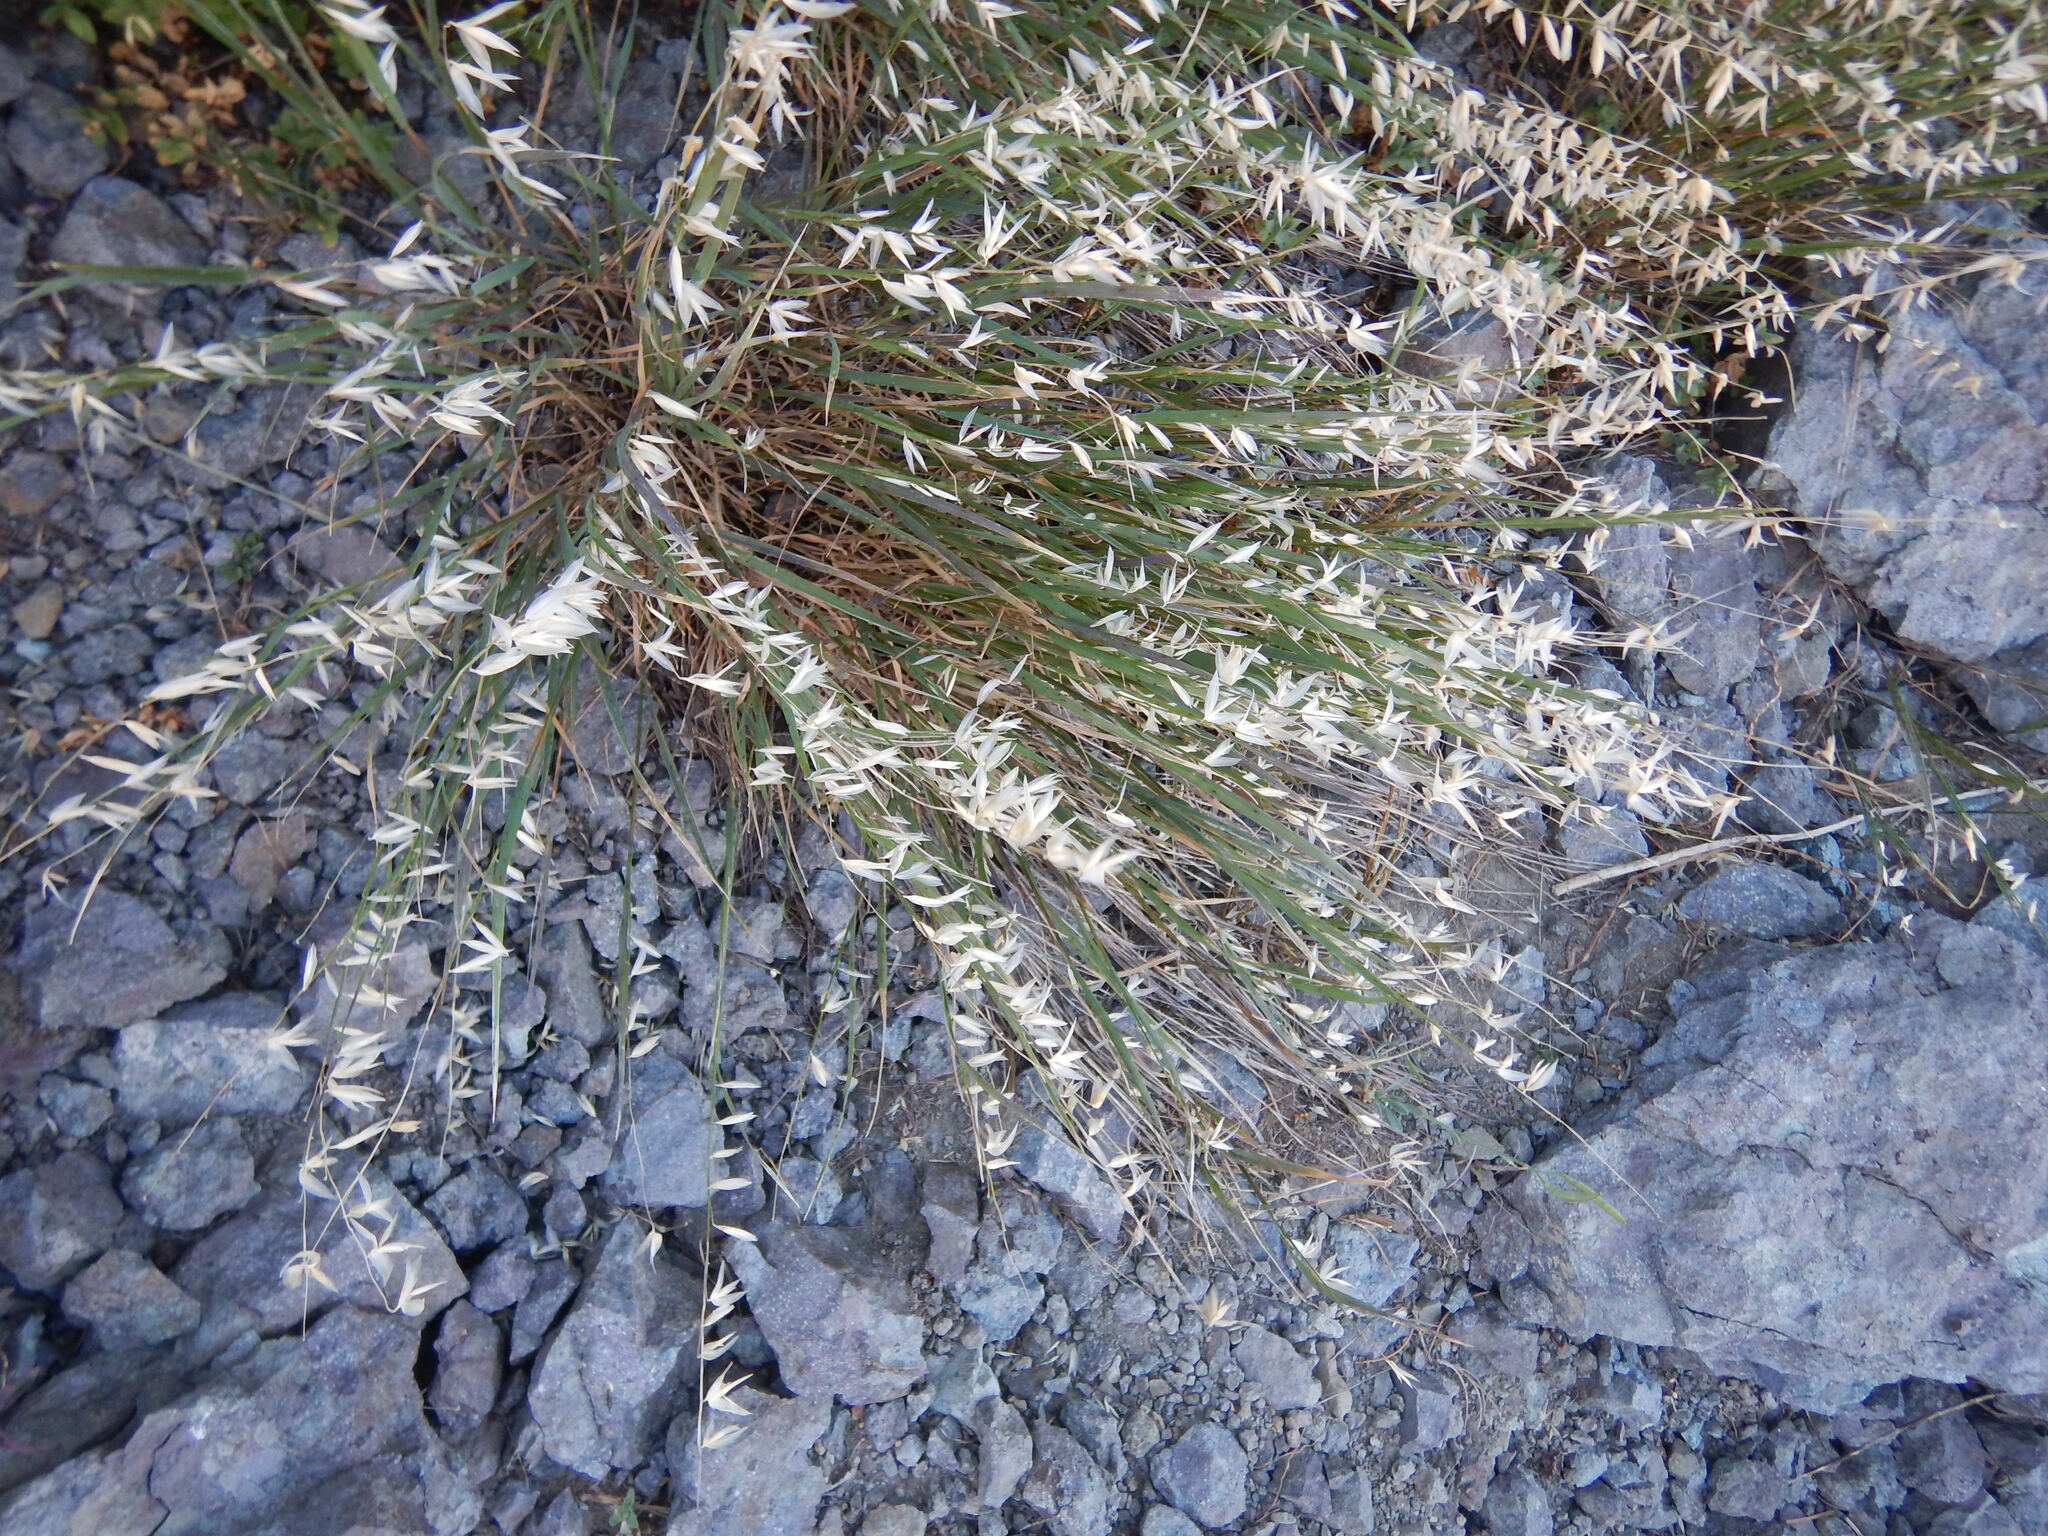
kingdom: Plantae
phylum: Tracheophyta
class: Liliopsida
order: Poales
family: Poaceae
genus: Melica
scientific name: Melica stricta
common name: Rock melic
